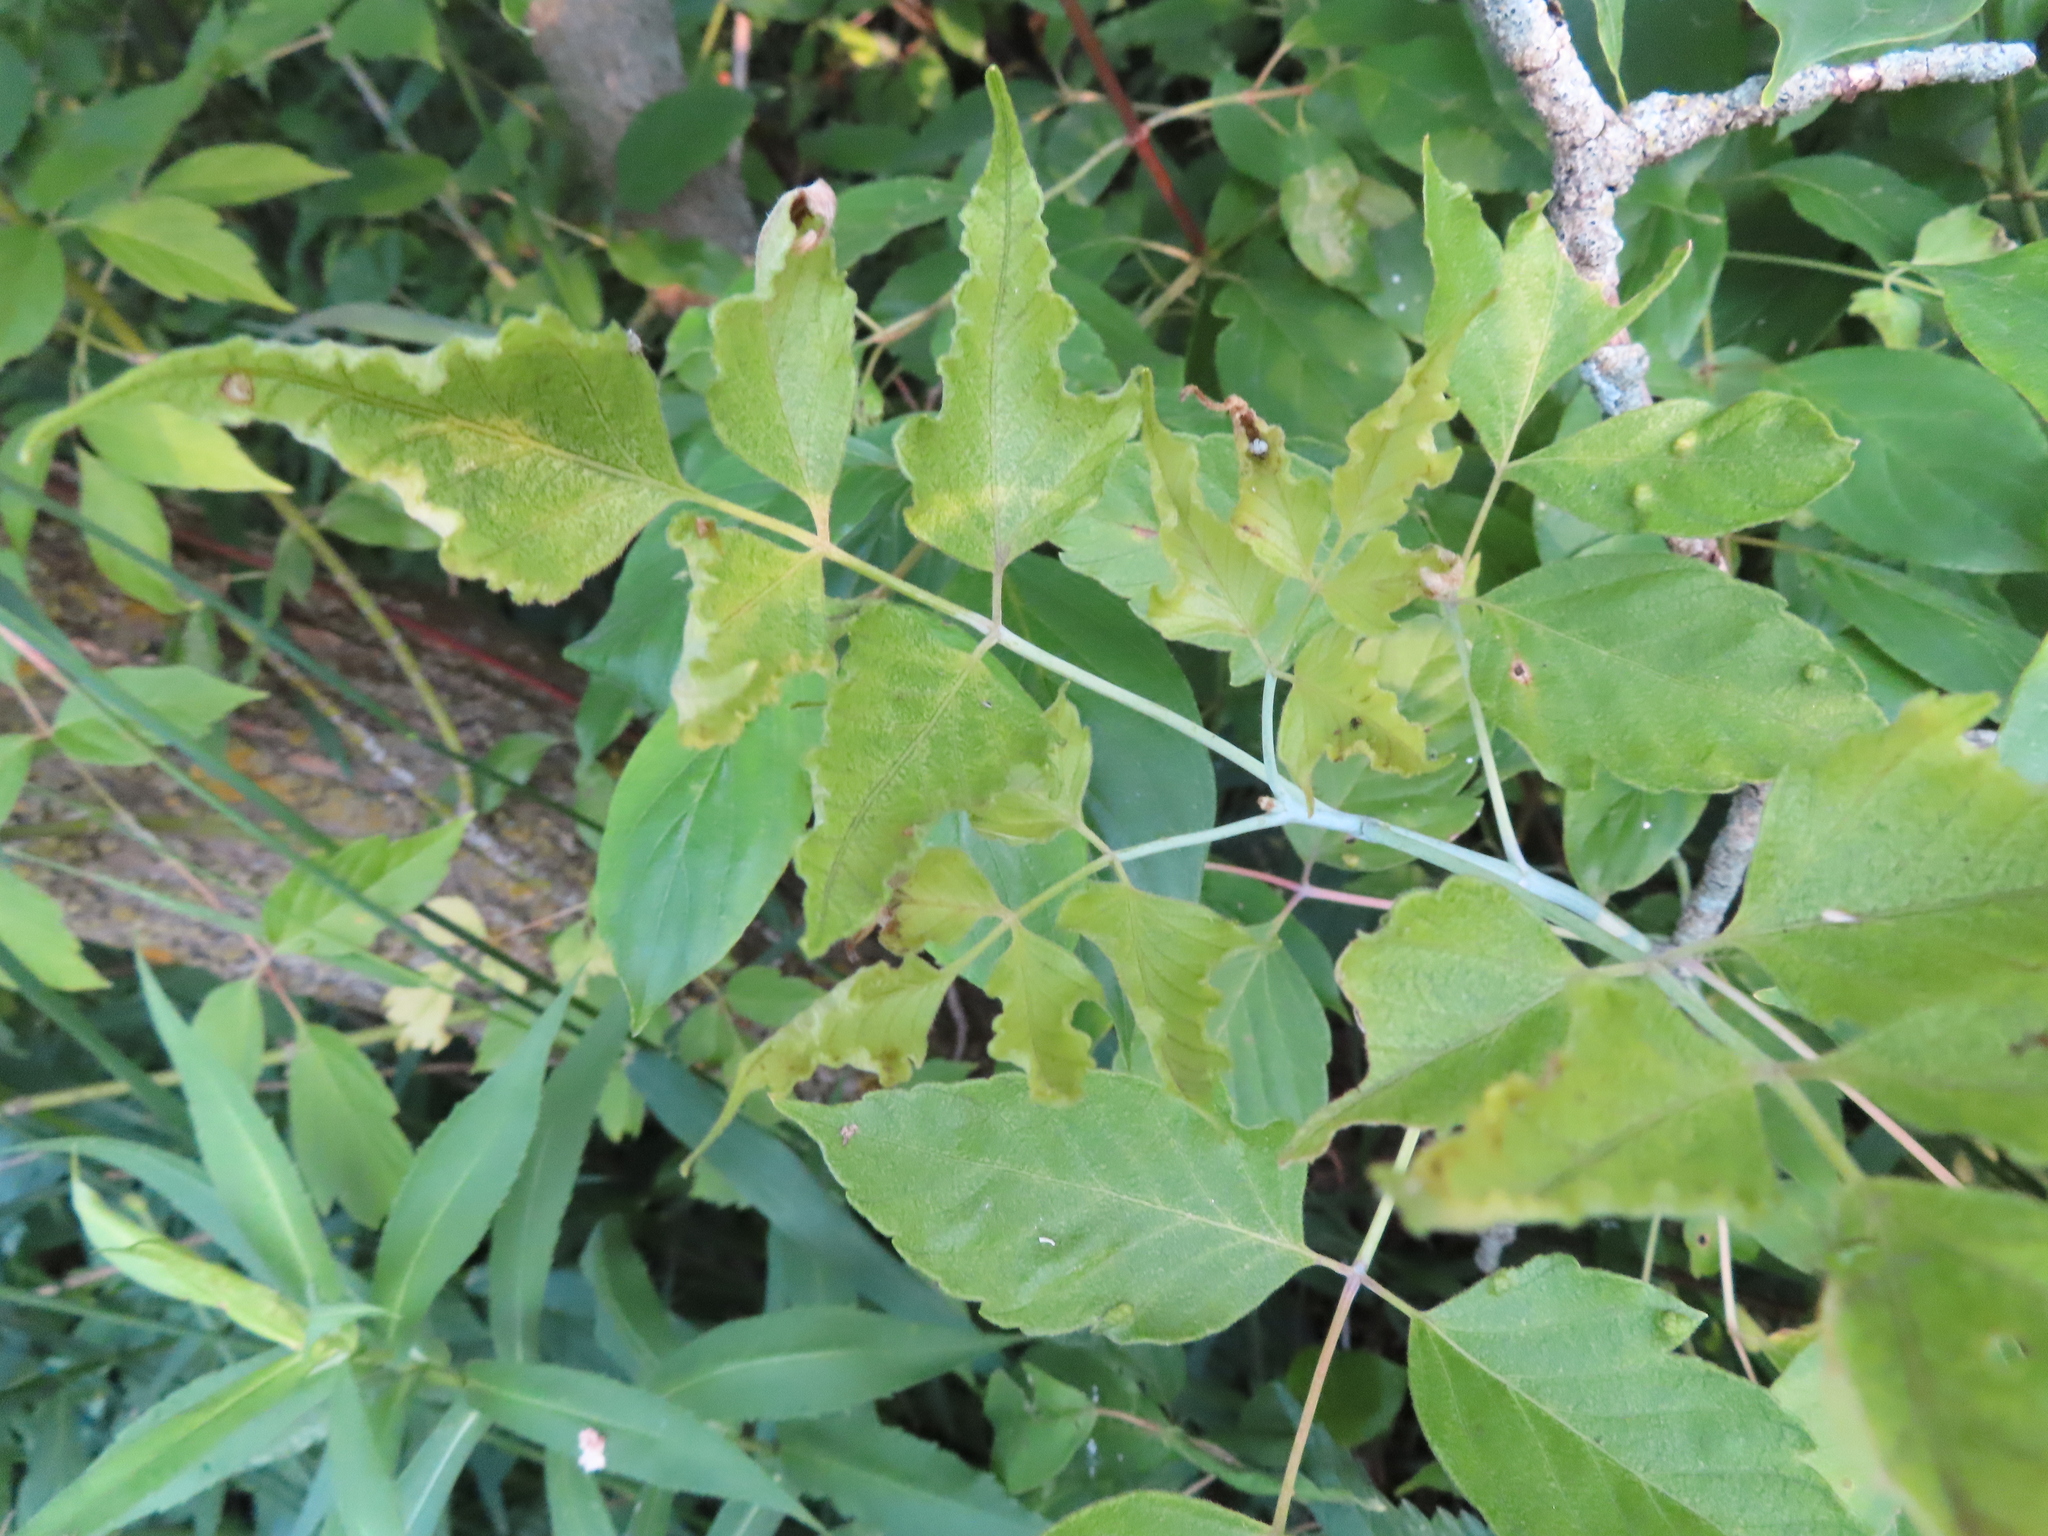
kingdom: Animalia
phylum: Arthropoda
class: Arachnida
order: Trombidiformes
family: Eriophyidae
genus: Aceria
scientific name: Aceria
